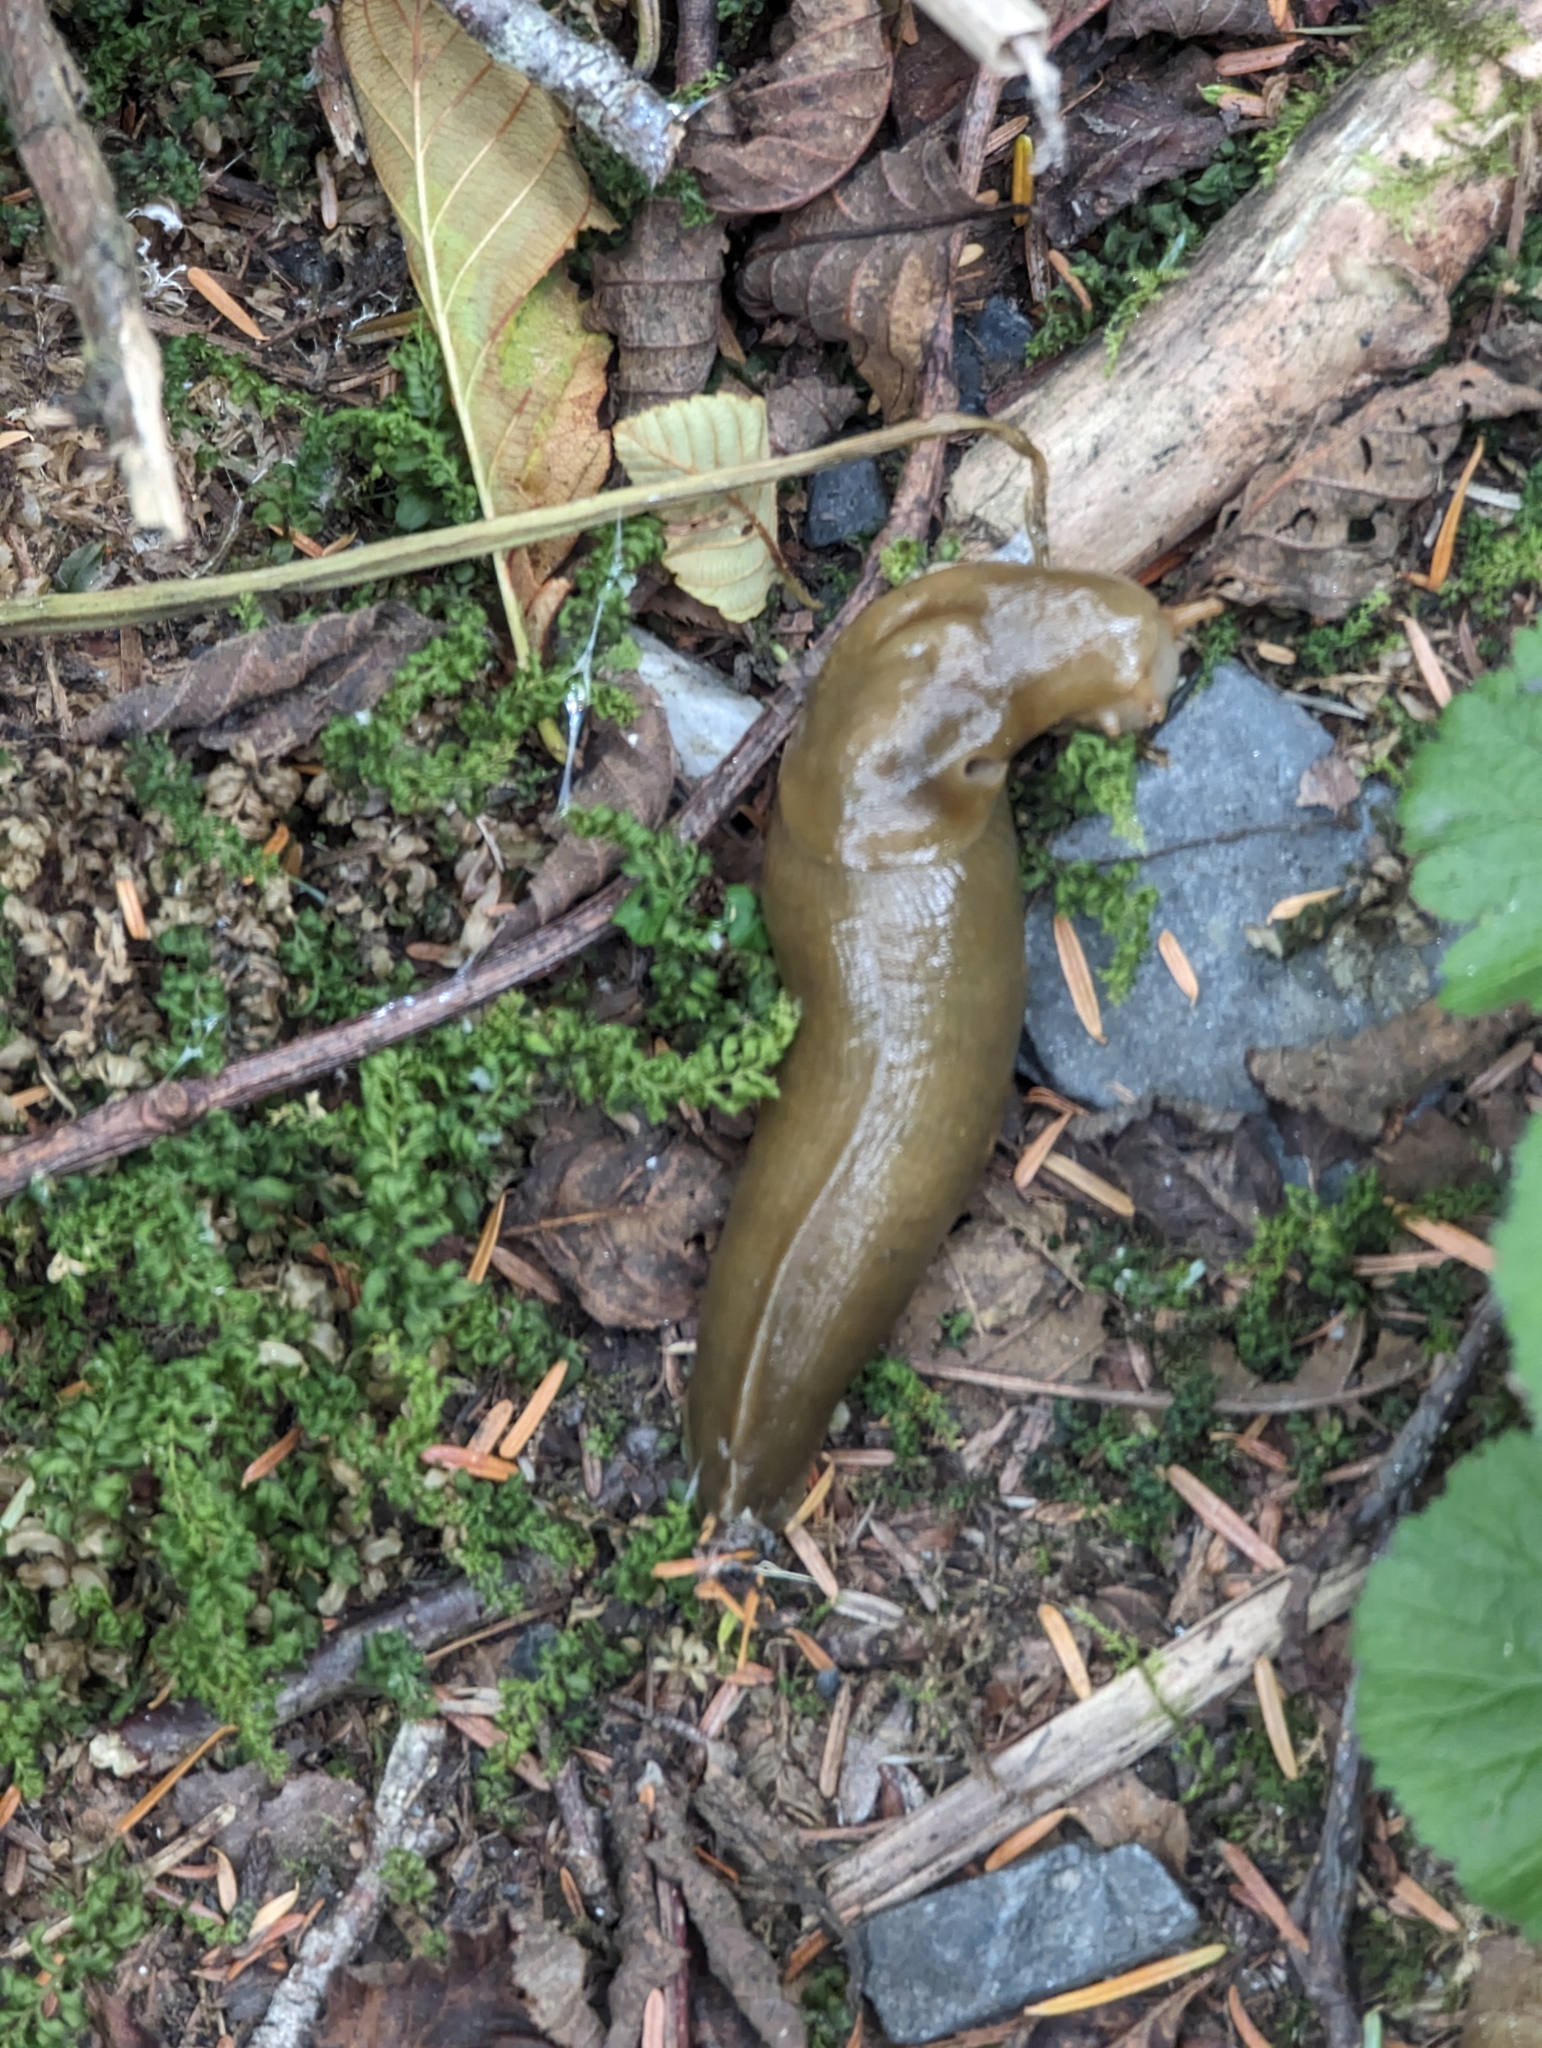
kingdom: Animalia
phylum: Mollusca
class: Gastropoda
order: Stylommatophora
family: Ariolimacidae
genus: Ariolimax
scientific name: Ariolimax columbianus
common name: Pacific banana slug
